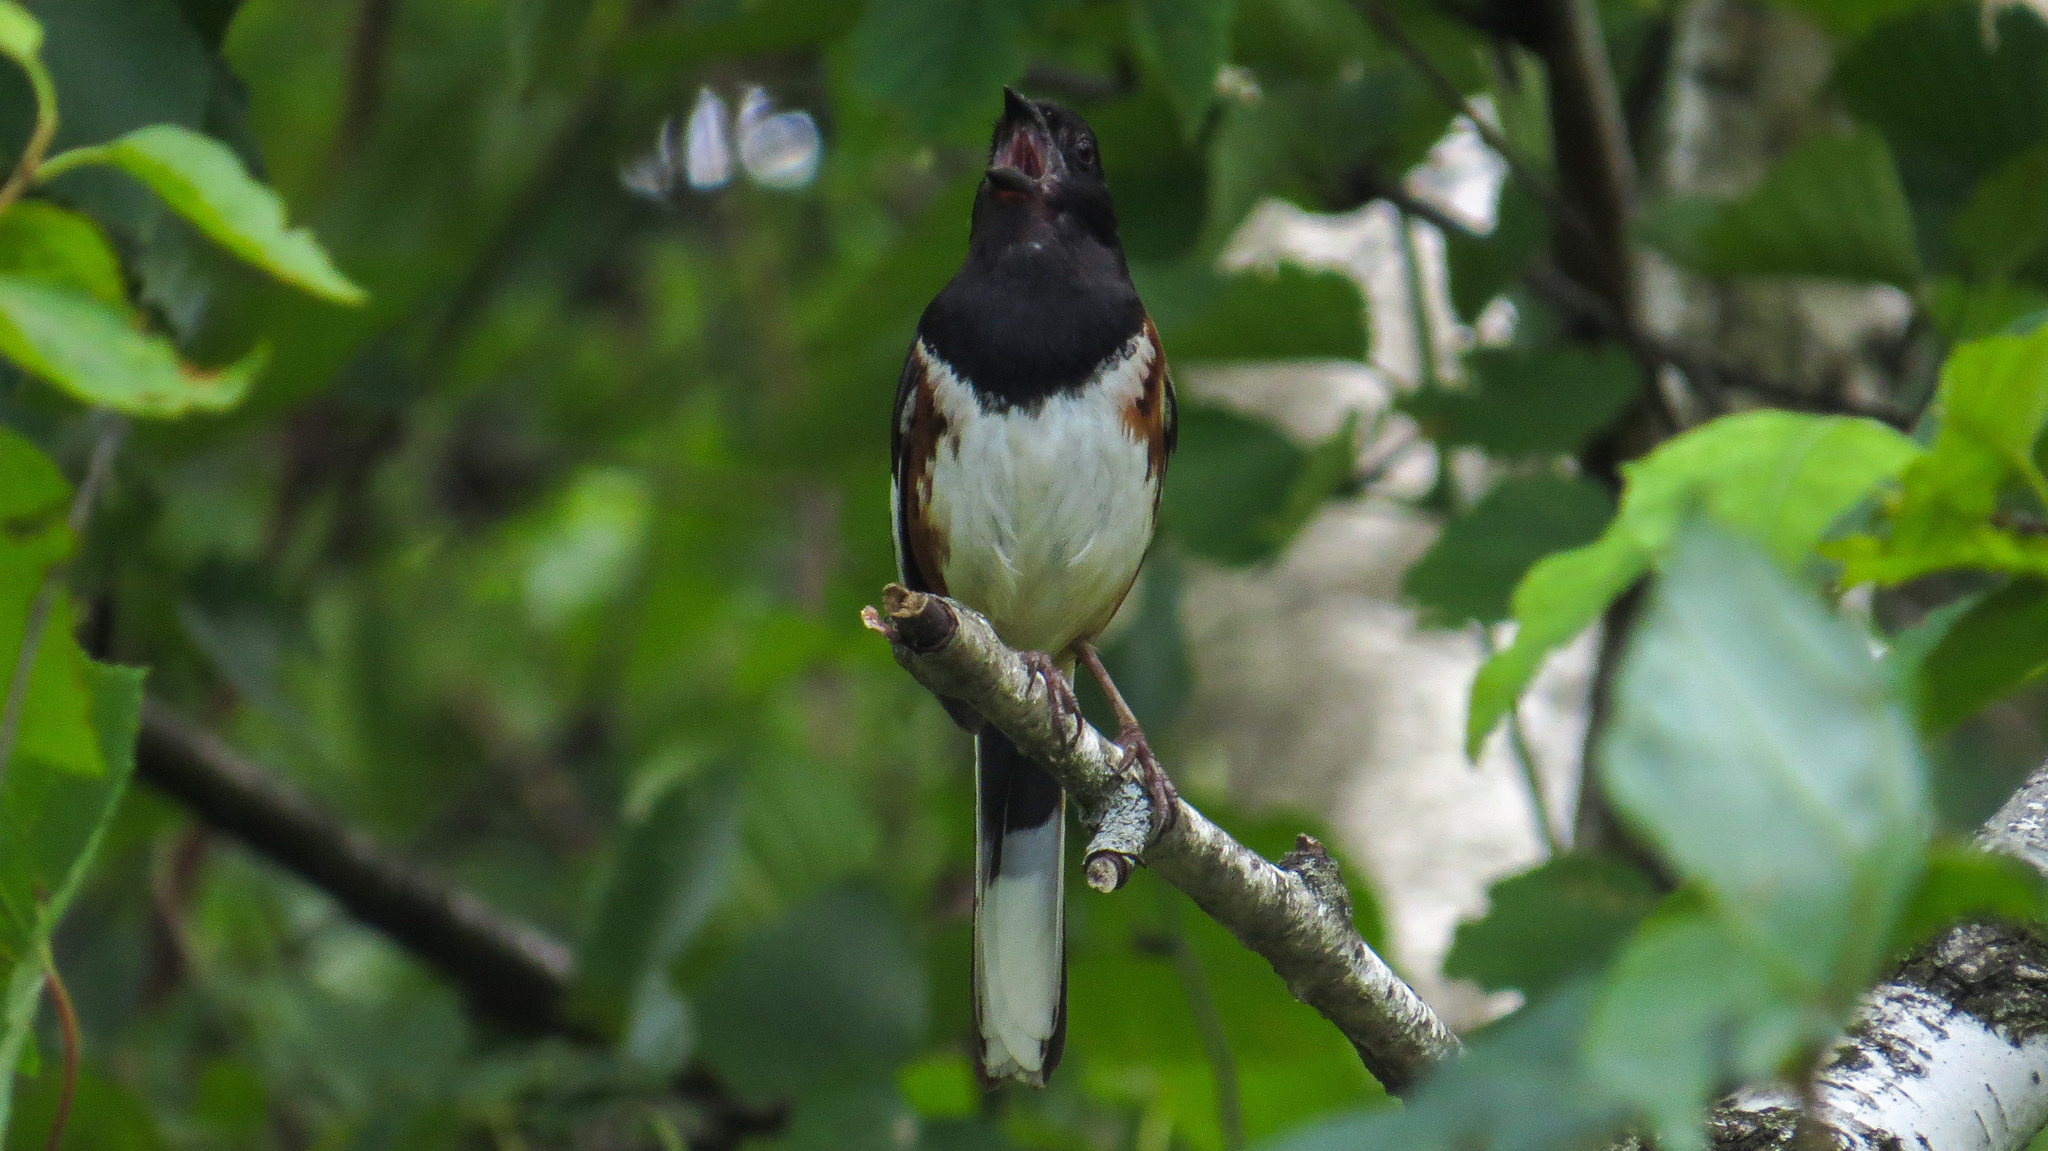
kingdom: Animalia
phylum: Chordata
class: Aves
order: Passeriformes
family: Passerellidae
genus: Pipilo
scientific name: Pipilo erythrophthalmus
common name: Eastern towhee
